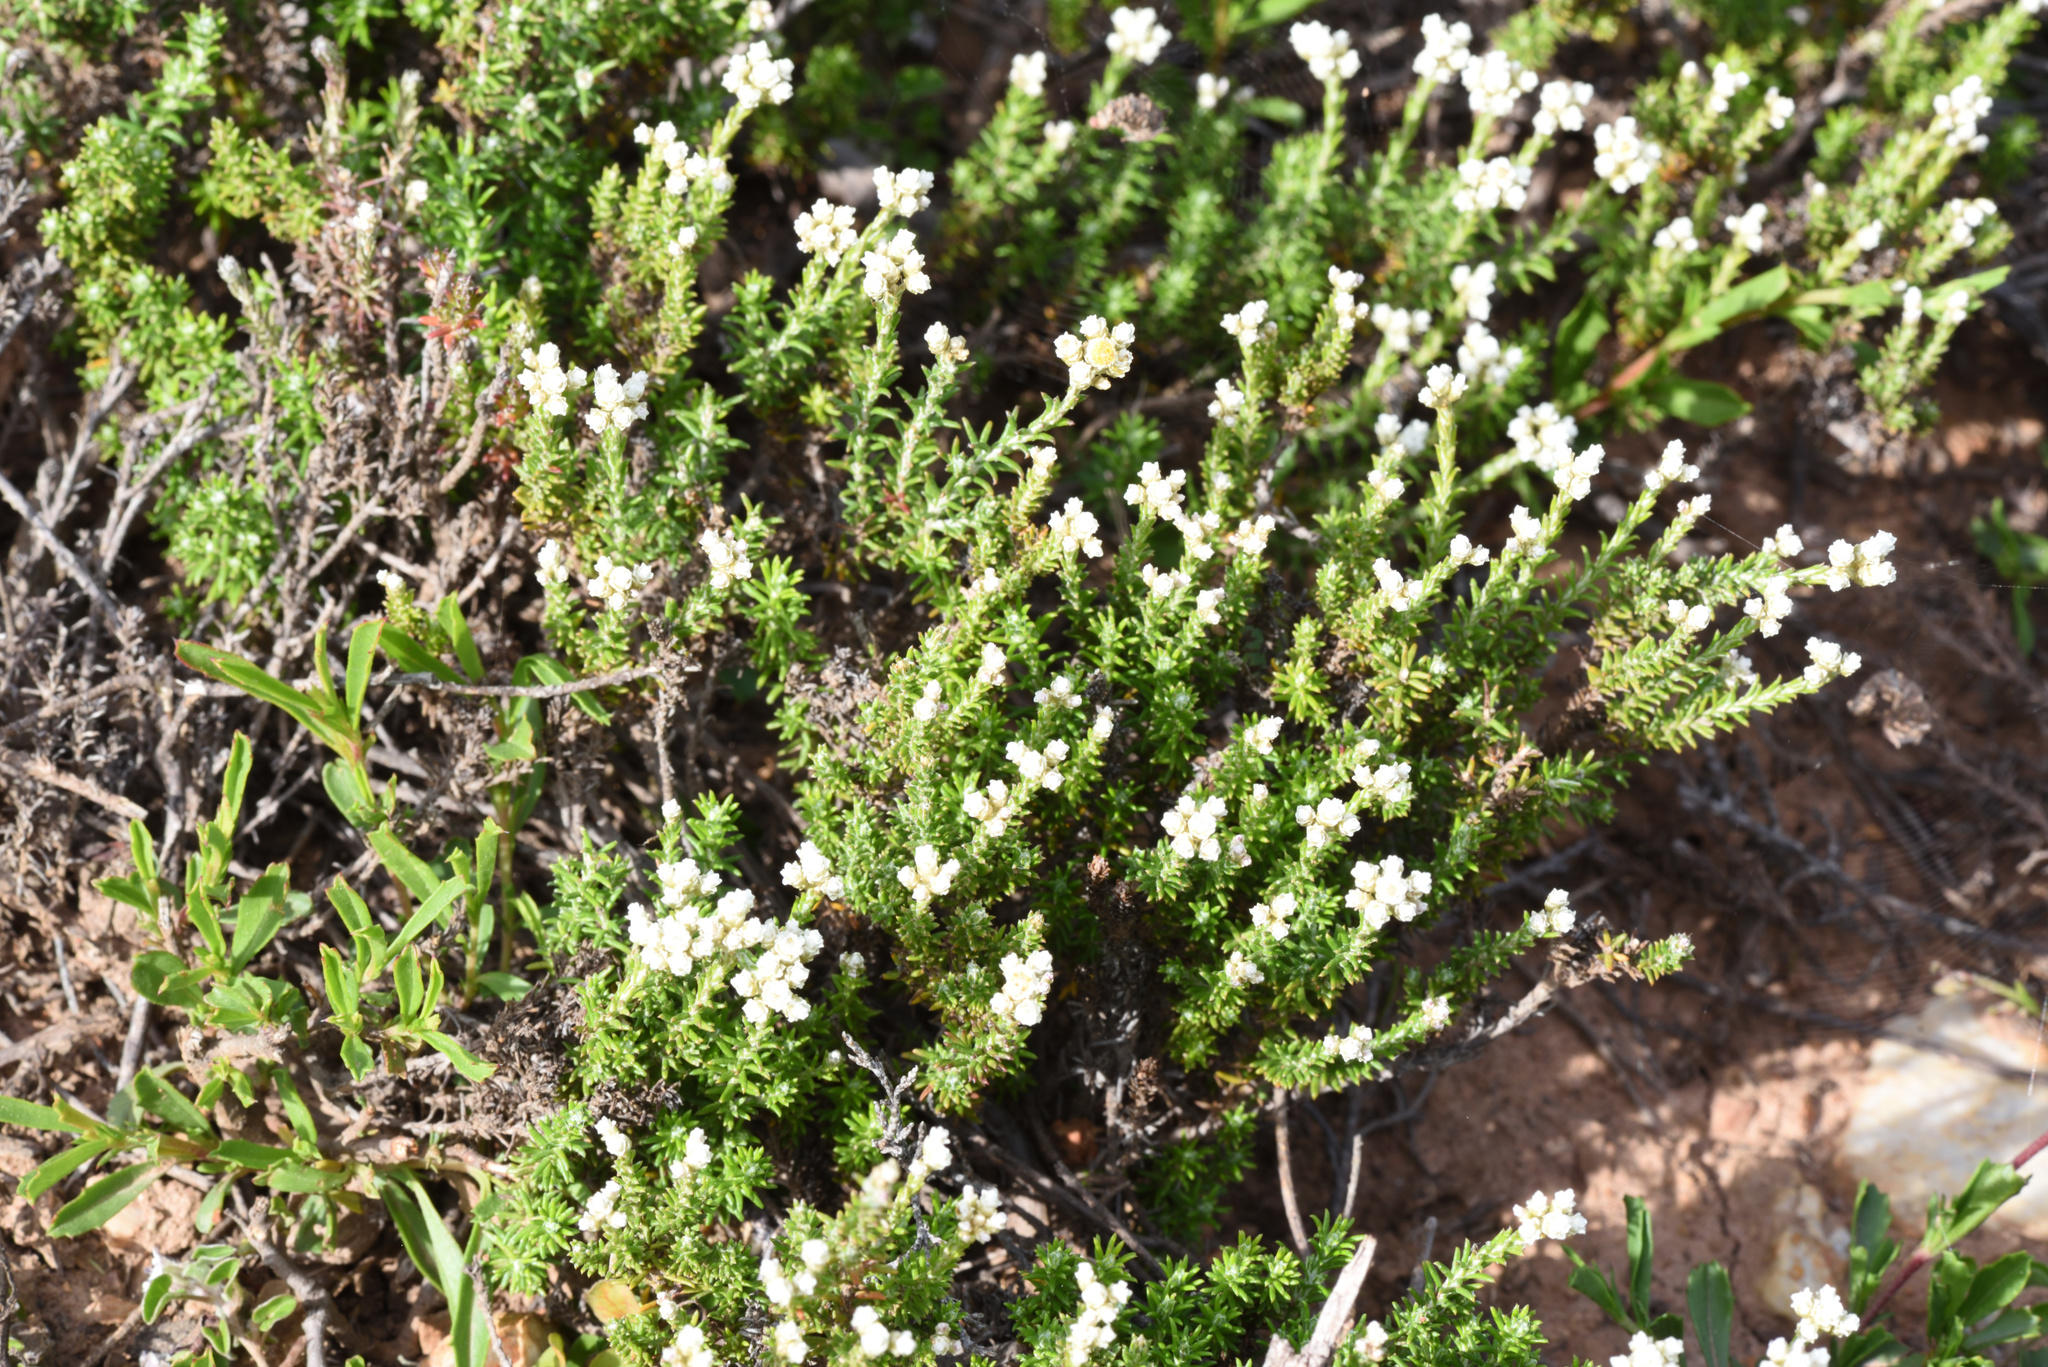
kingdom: Plantae
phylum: Tracheophyta
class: Magnoliopsida
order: Asterales
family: Asteraceae
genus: Helichrysum
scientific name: Helichrysum teretifolium
